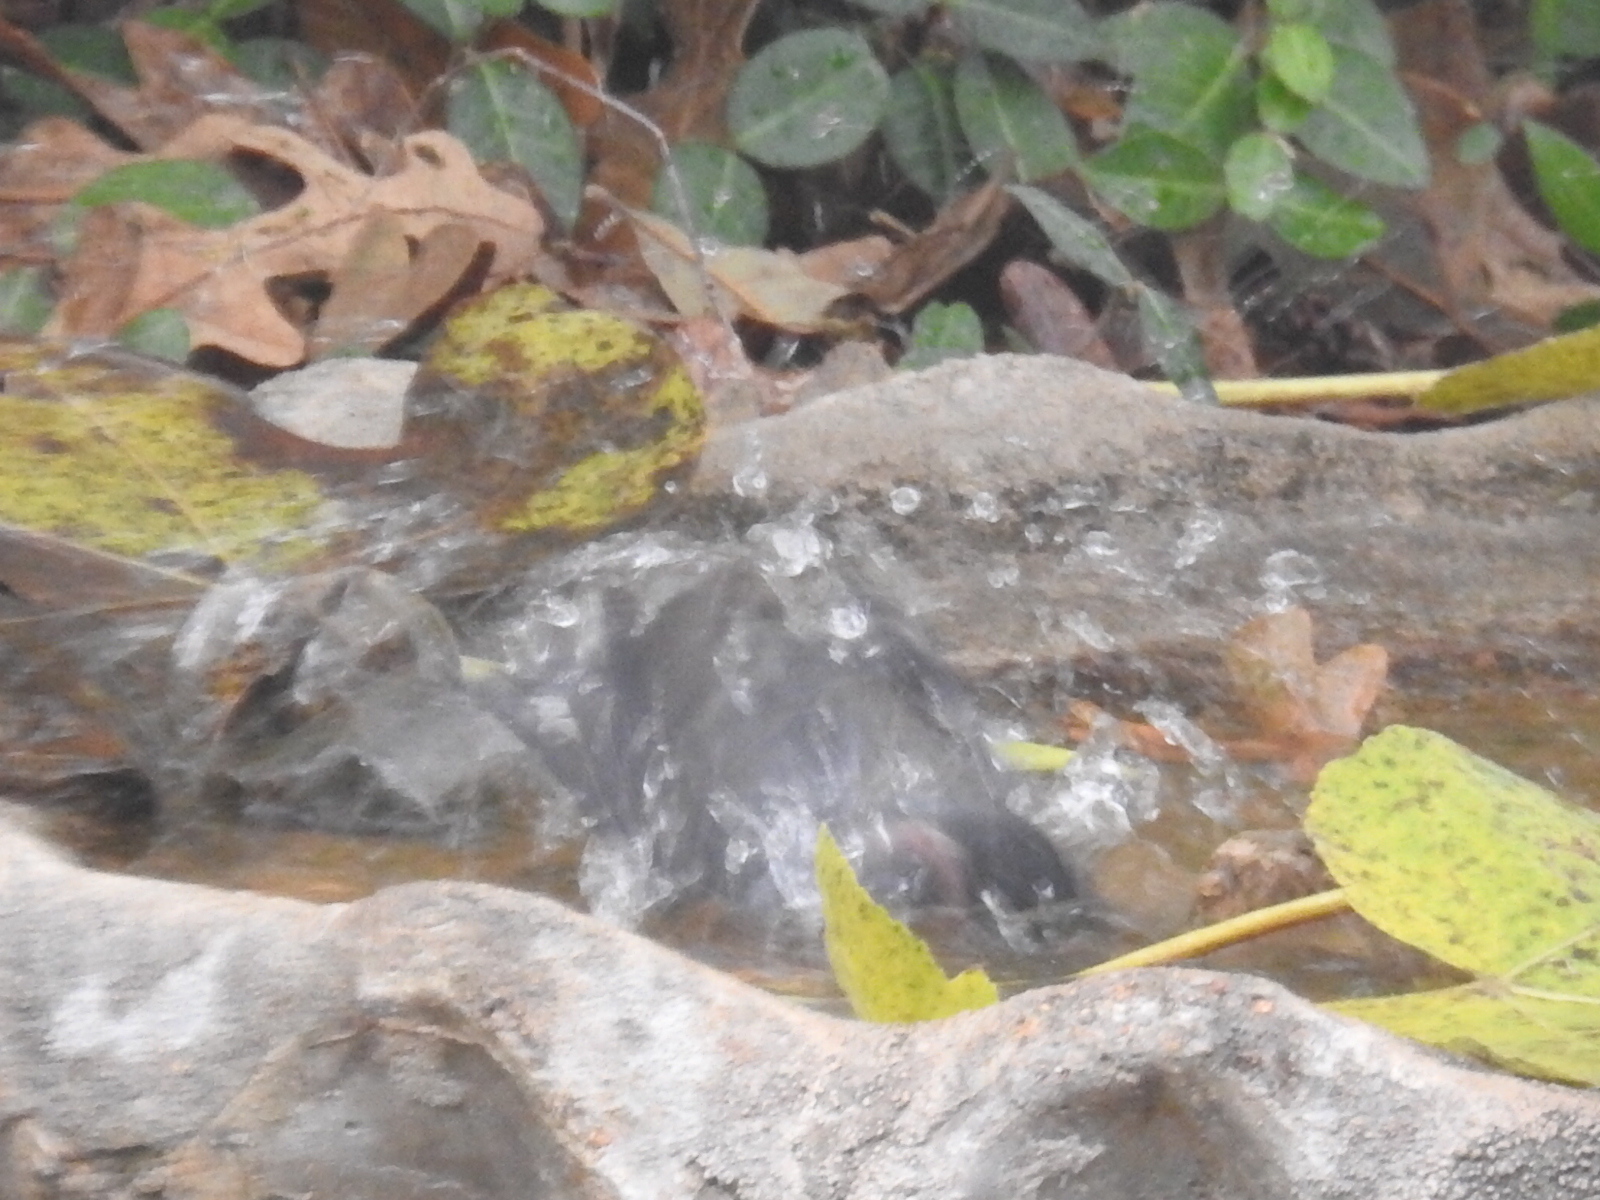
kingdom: Animalia
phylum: Chordata
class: Aves
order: Passeriformes
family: Passerellidae
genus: Junco
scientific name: Junco hyemalis
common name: Dark-eyed junco
